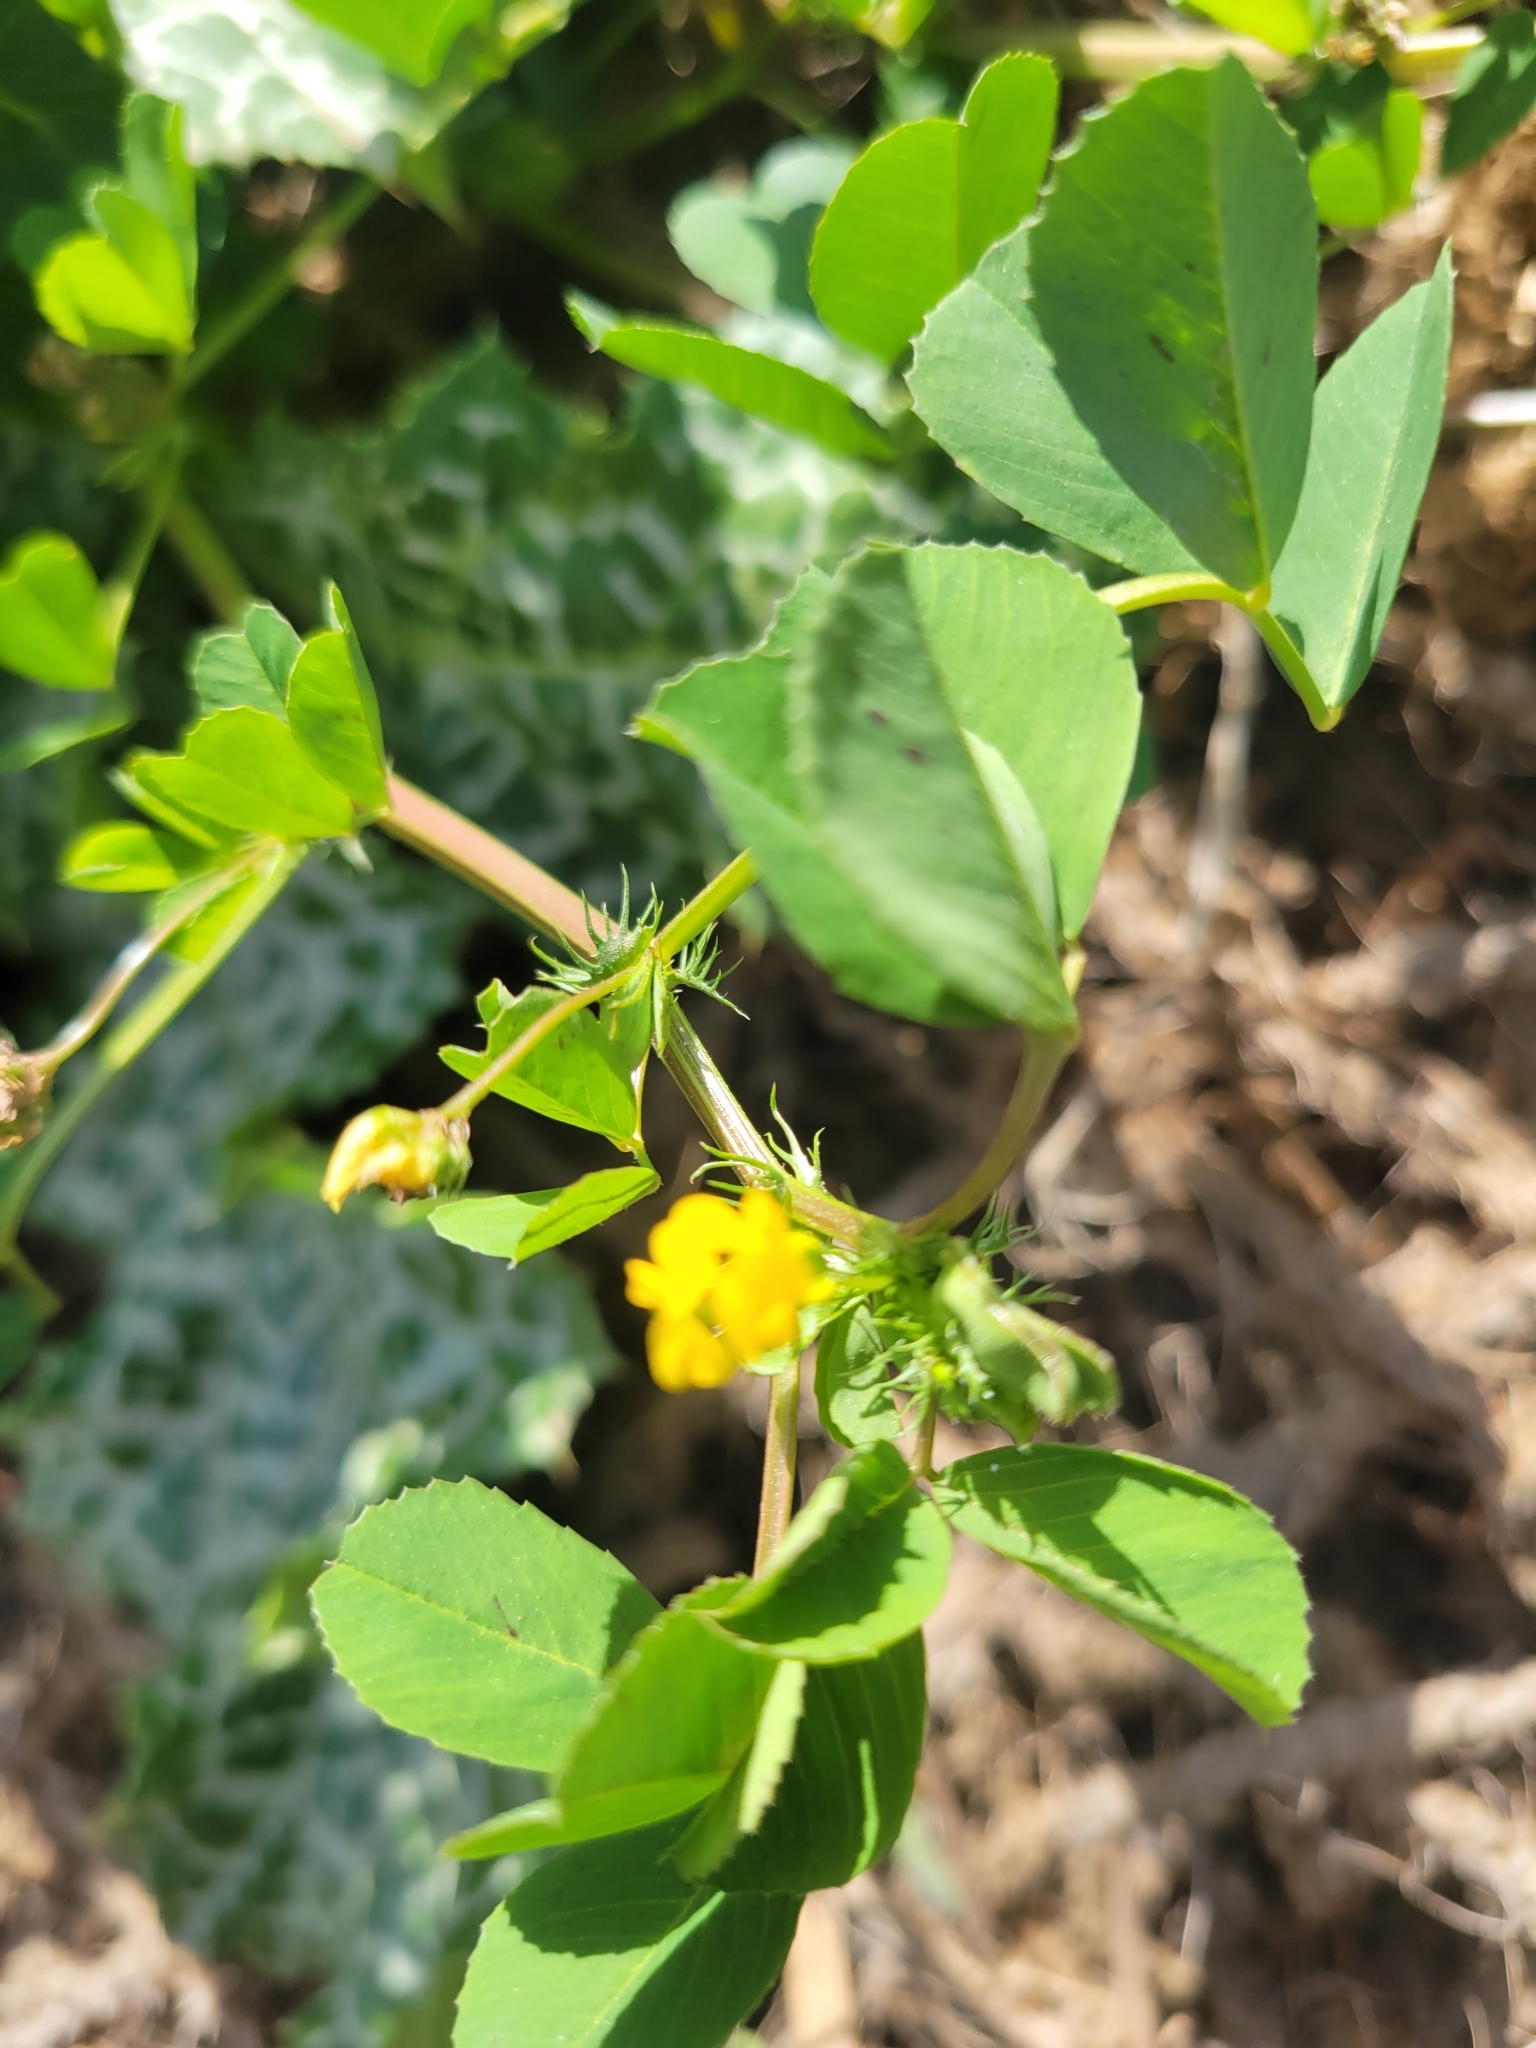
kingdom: Plantae
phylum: Tracheophyta
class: Magnoliopsida
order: Fabales
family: Fabaceae
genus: Medicago
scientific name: Medicago polymorpha
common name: Burclover
